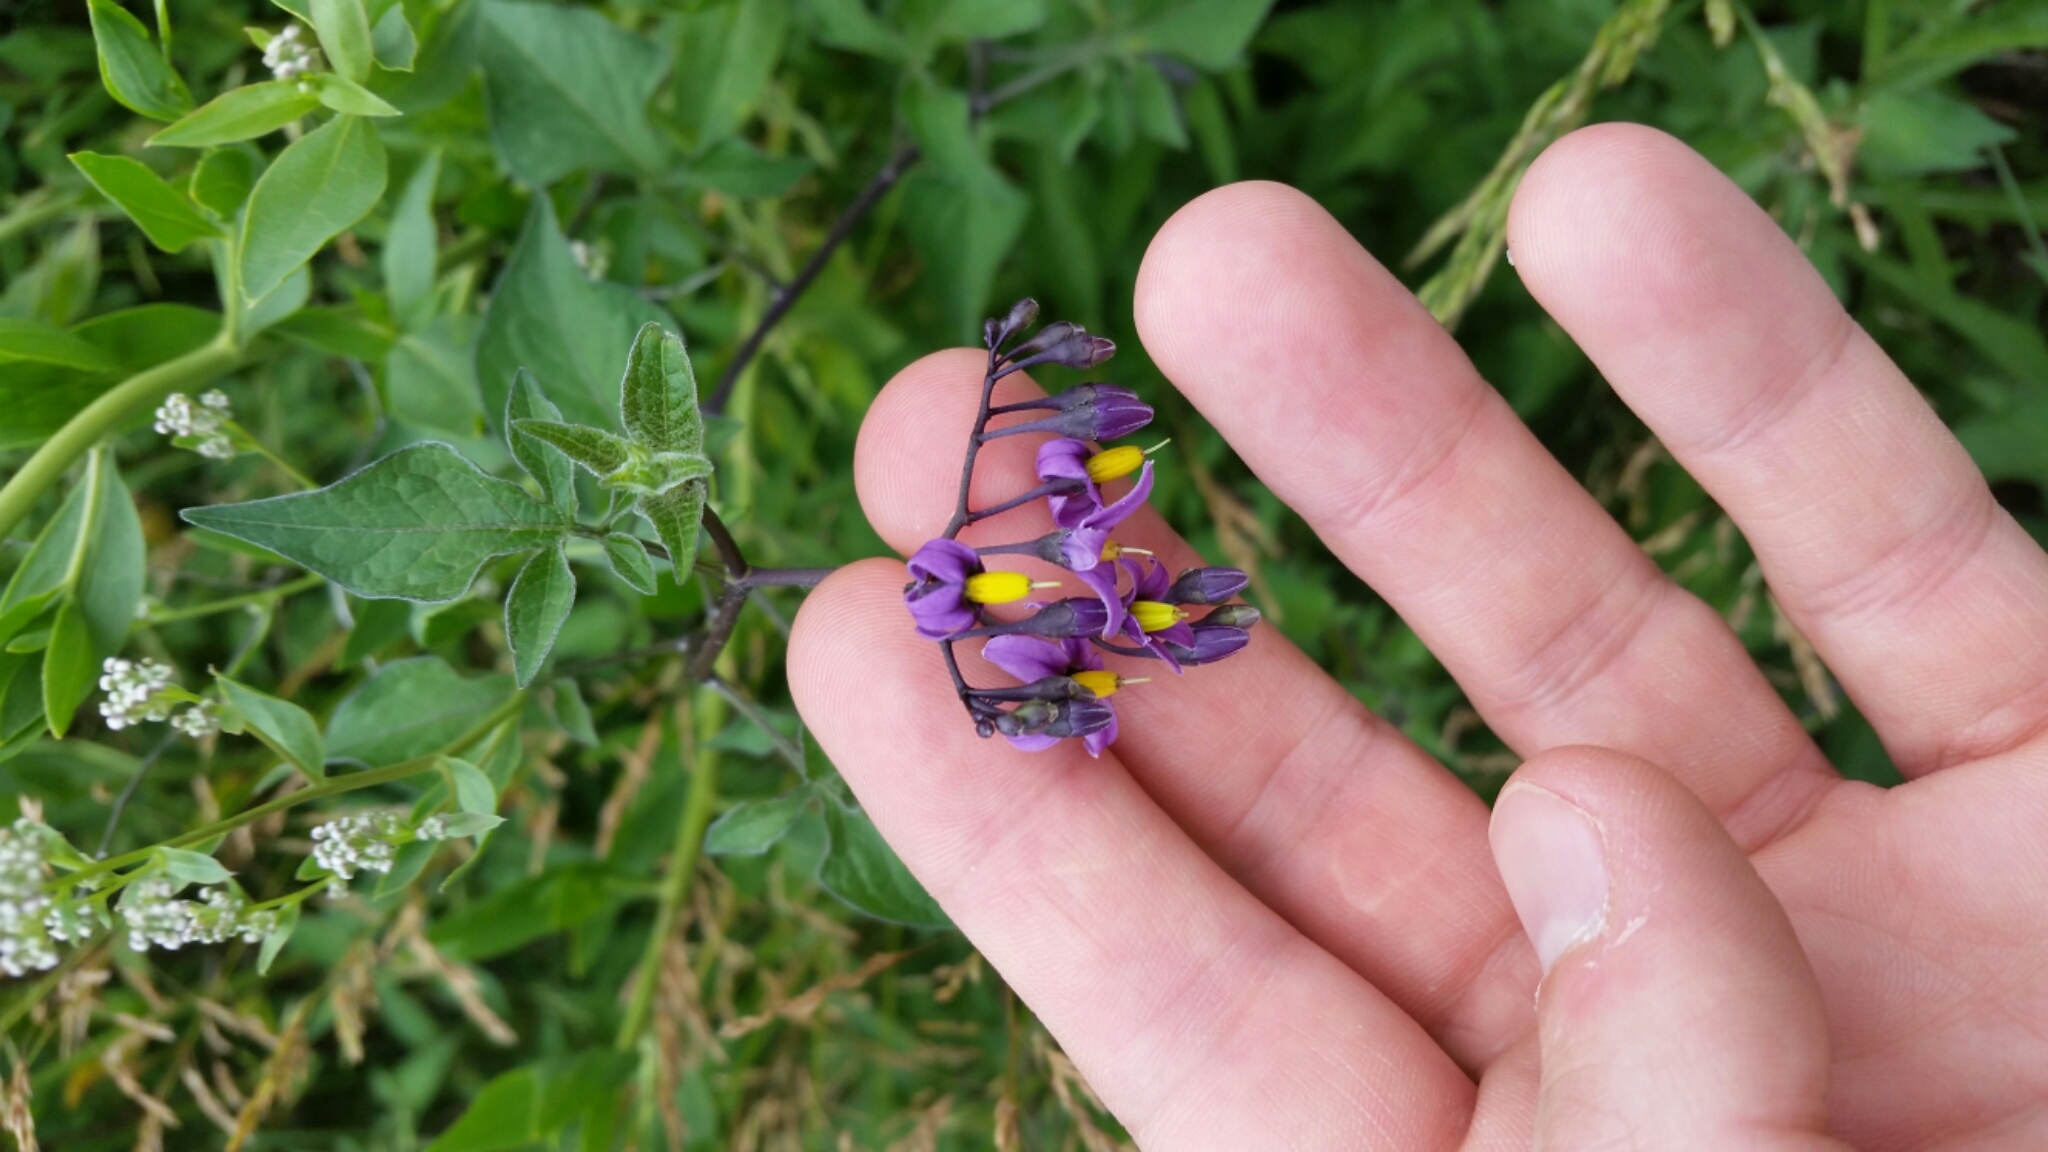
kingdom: Plantae
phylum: Tracheophyta
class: Magnoliopsida
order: Solanales
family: Solanaceae
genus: Solanum
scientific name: Solanum dulcamara
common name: Climbing nightshade
